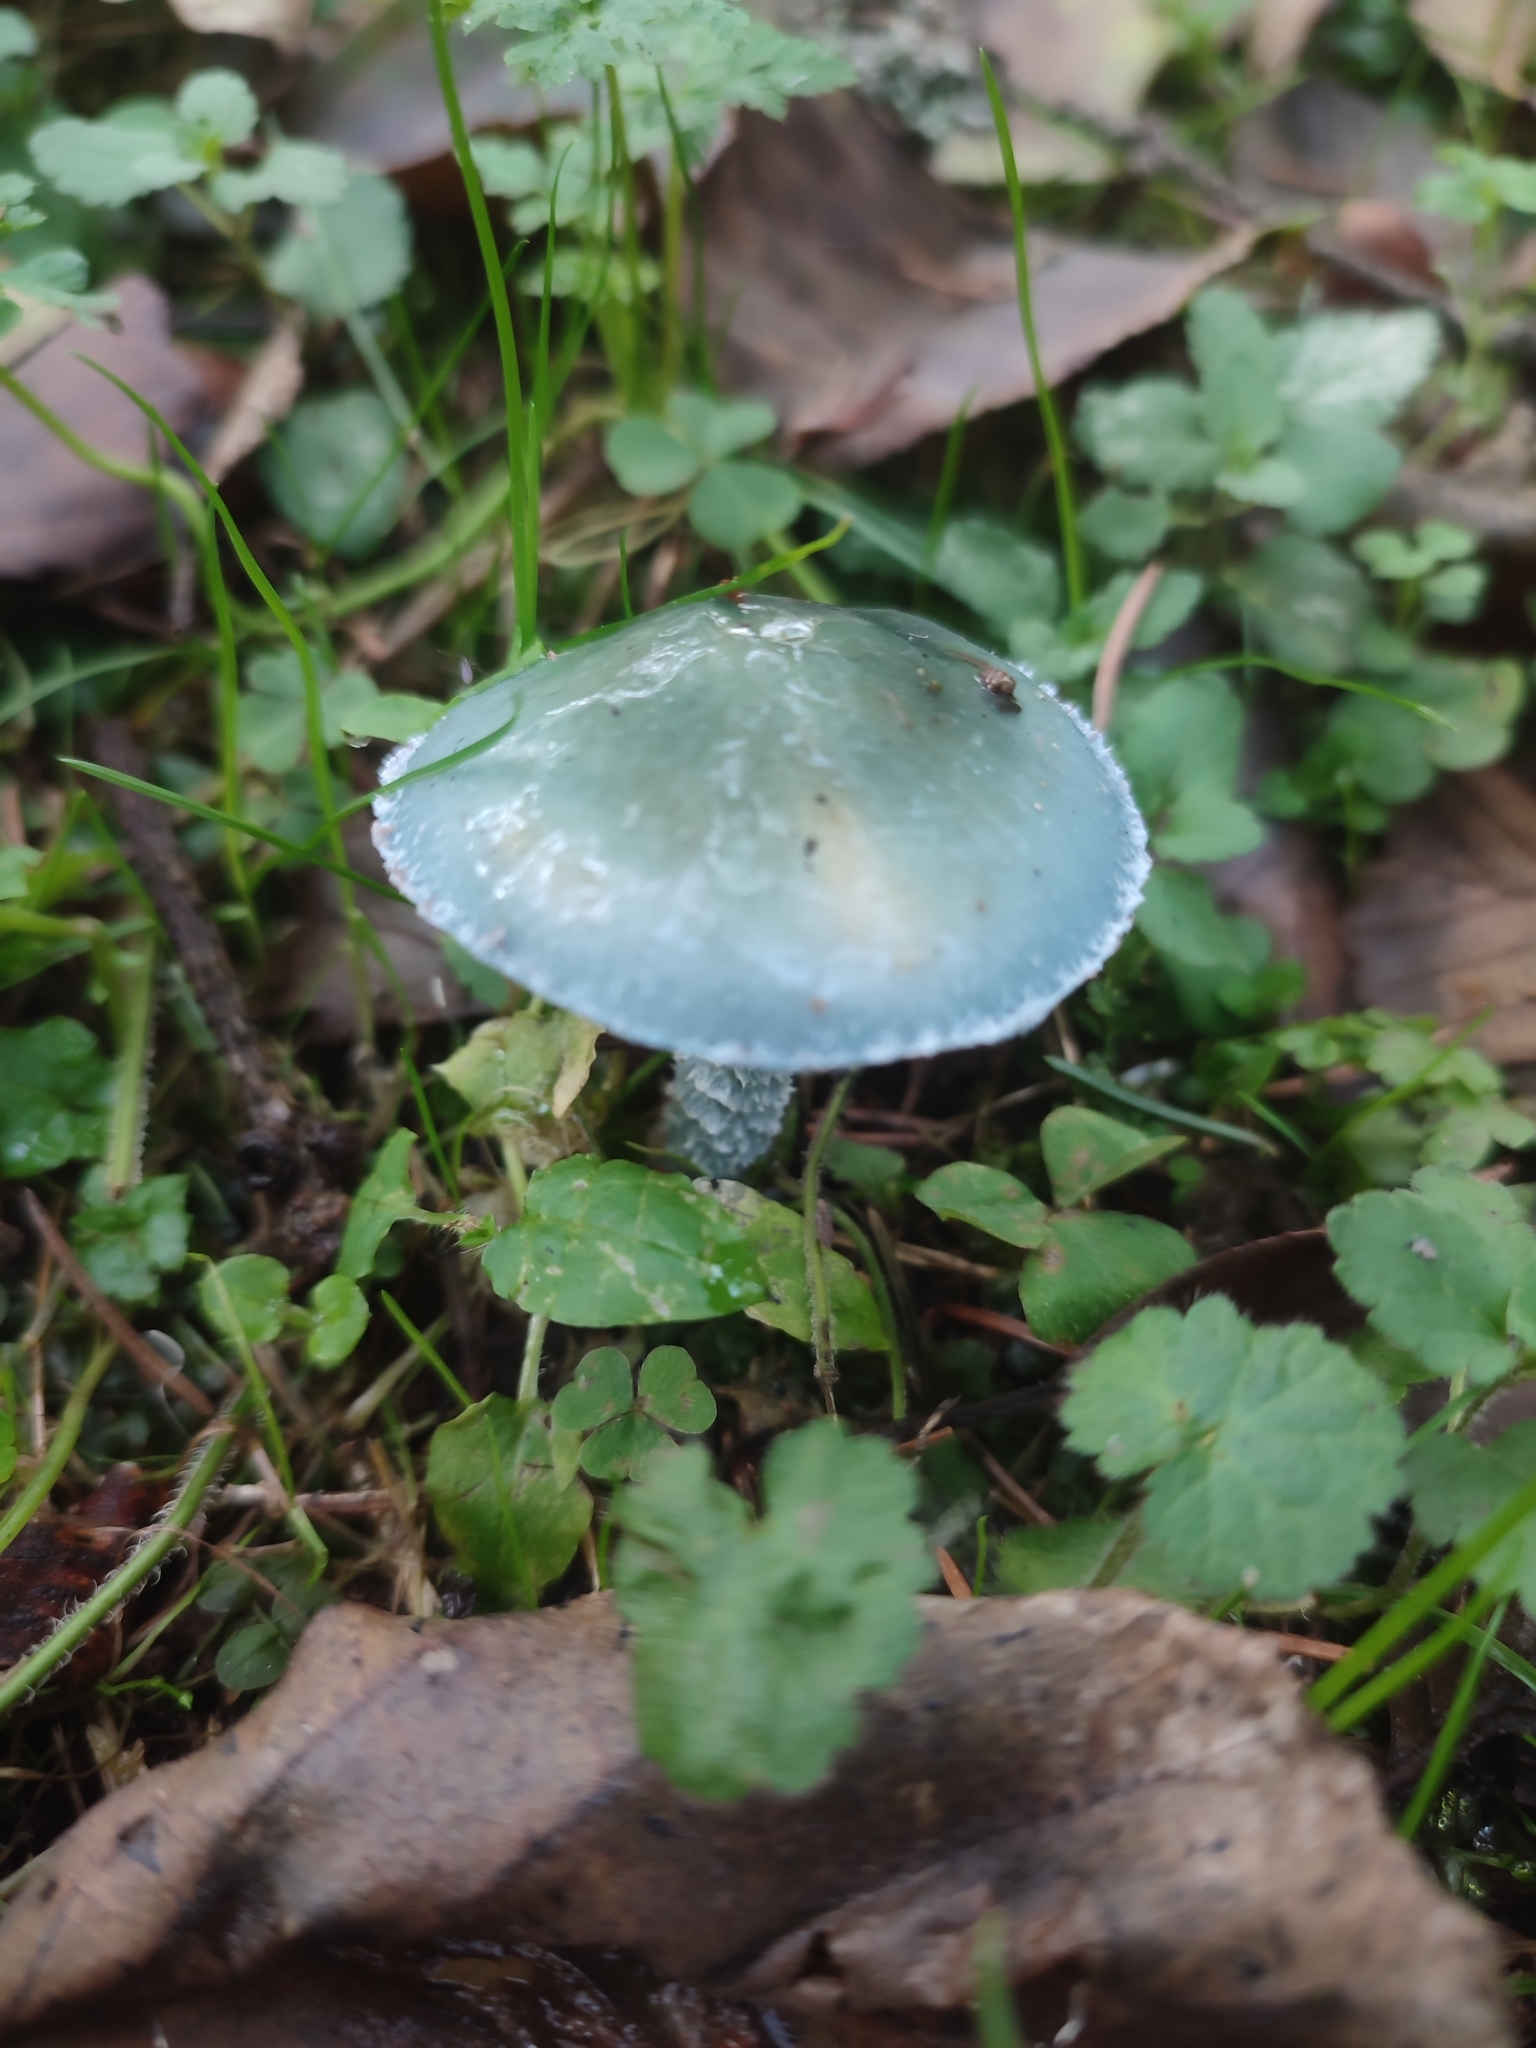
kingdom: Fungi
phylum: Basidiomycota
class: Agaricomycetes
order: Agaricales
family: Strophariaceae
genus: Stropharia
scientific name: Stropharia aeruginosa
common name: Verdigris roundhead
